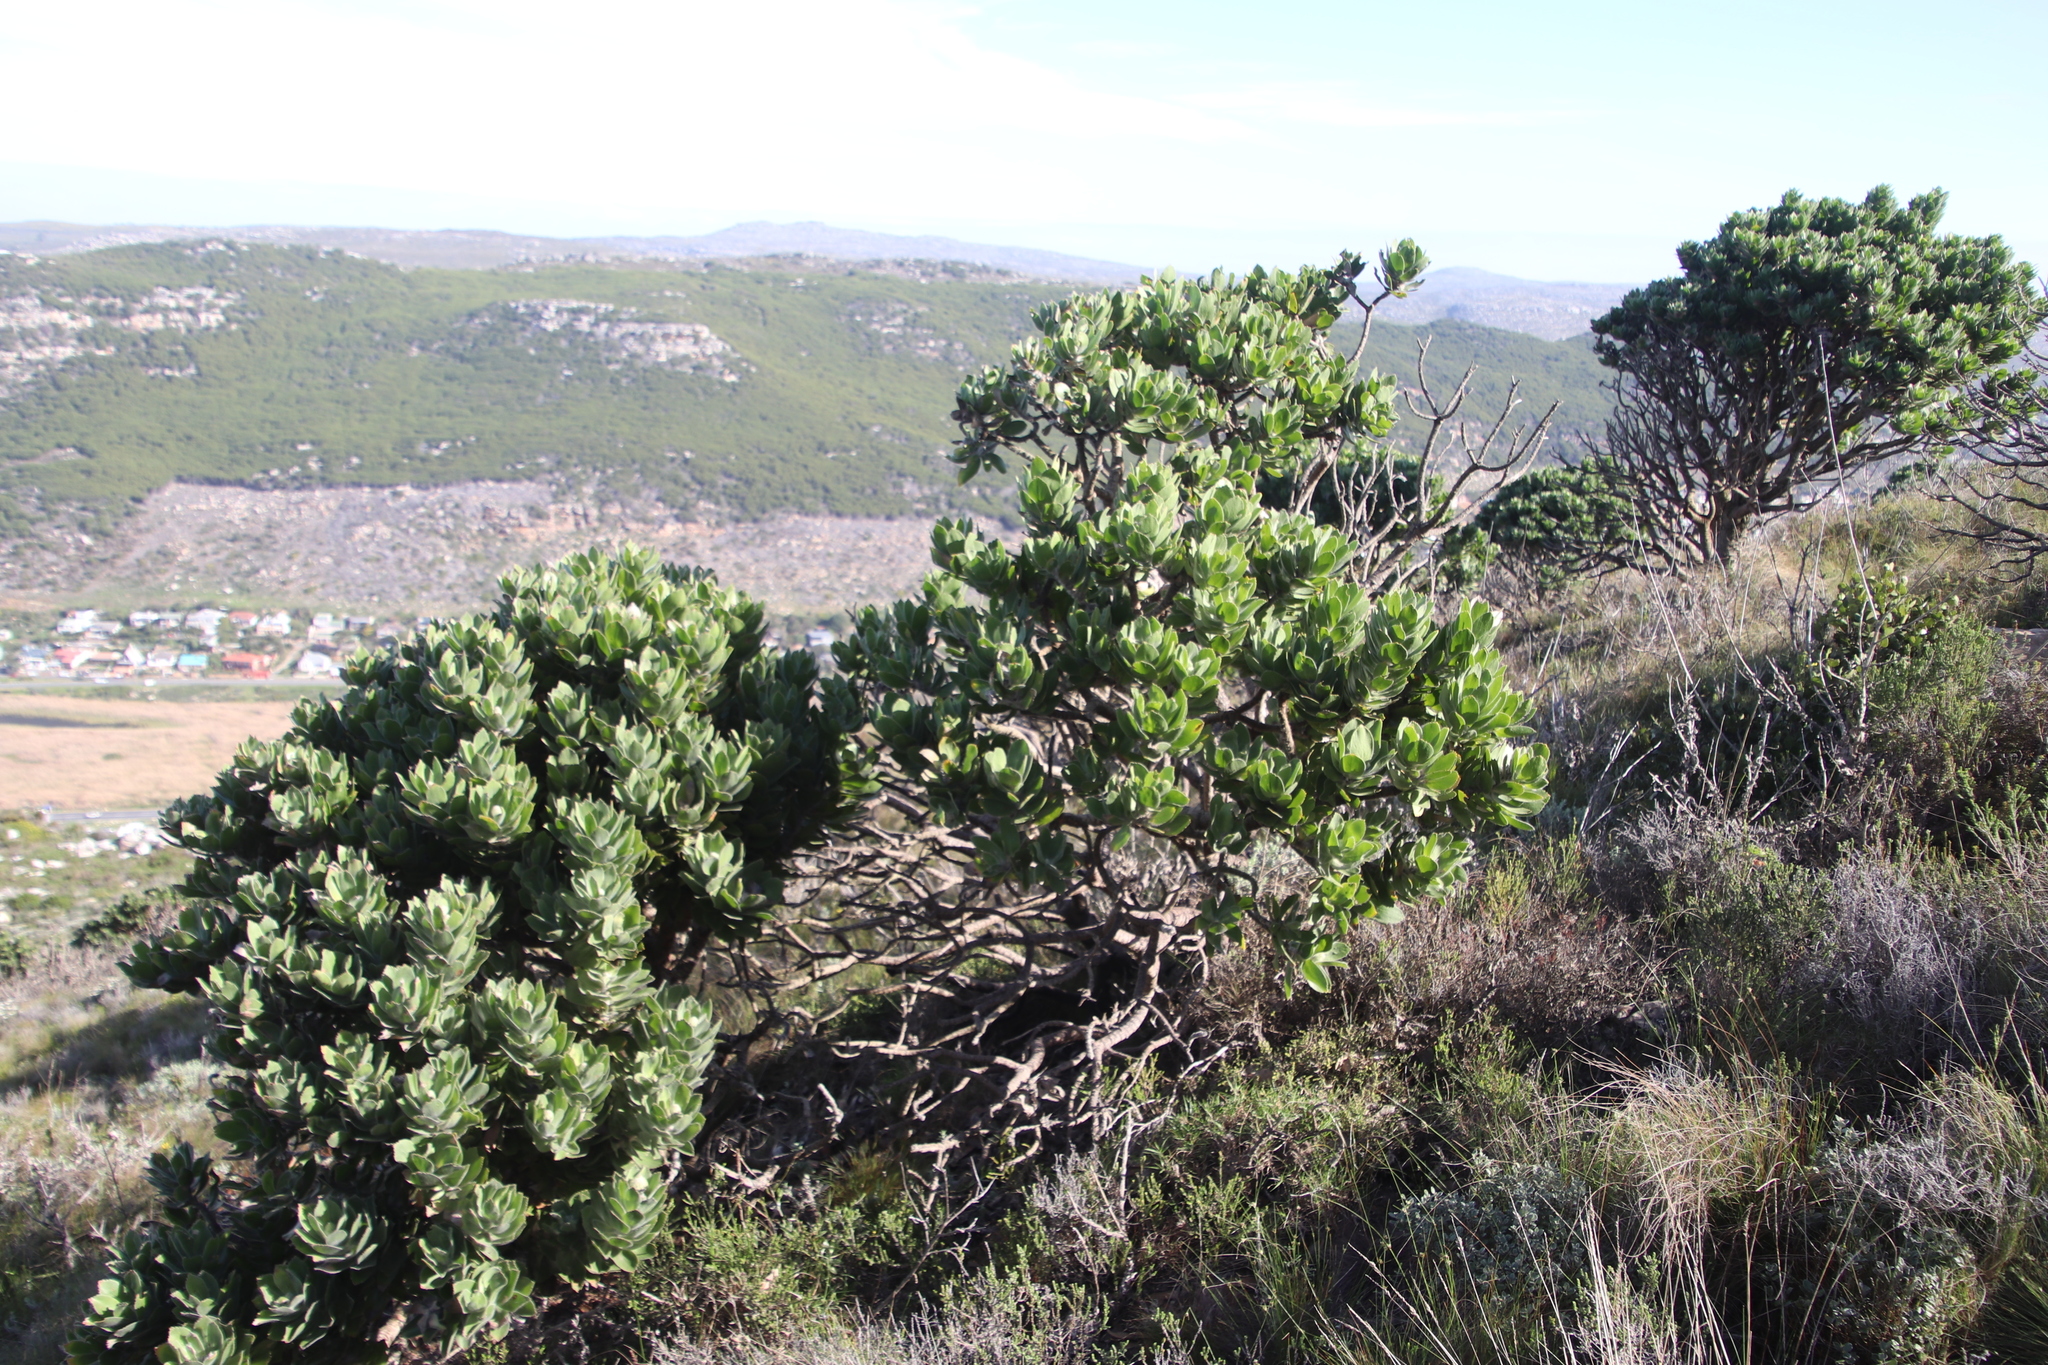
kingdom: Plantae
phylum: Tracheophyta
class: Magnoliopsida
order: Proteales
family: Proteaceae
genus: Leucospermum
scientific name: Leucospermum conocarpodendron
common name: Tree pincushion
